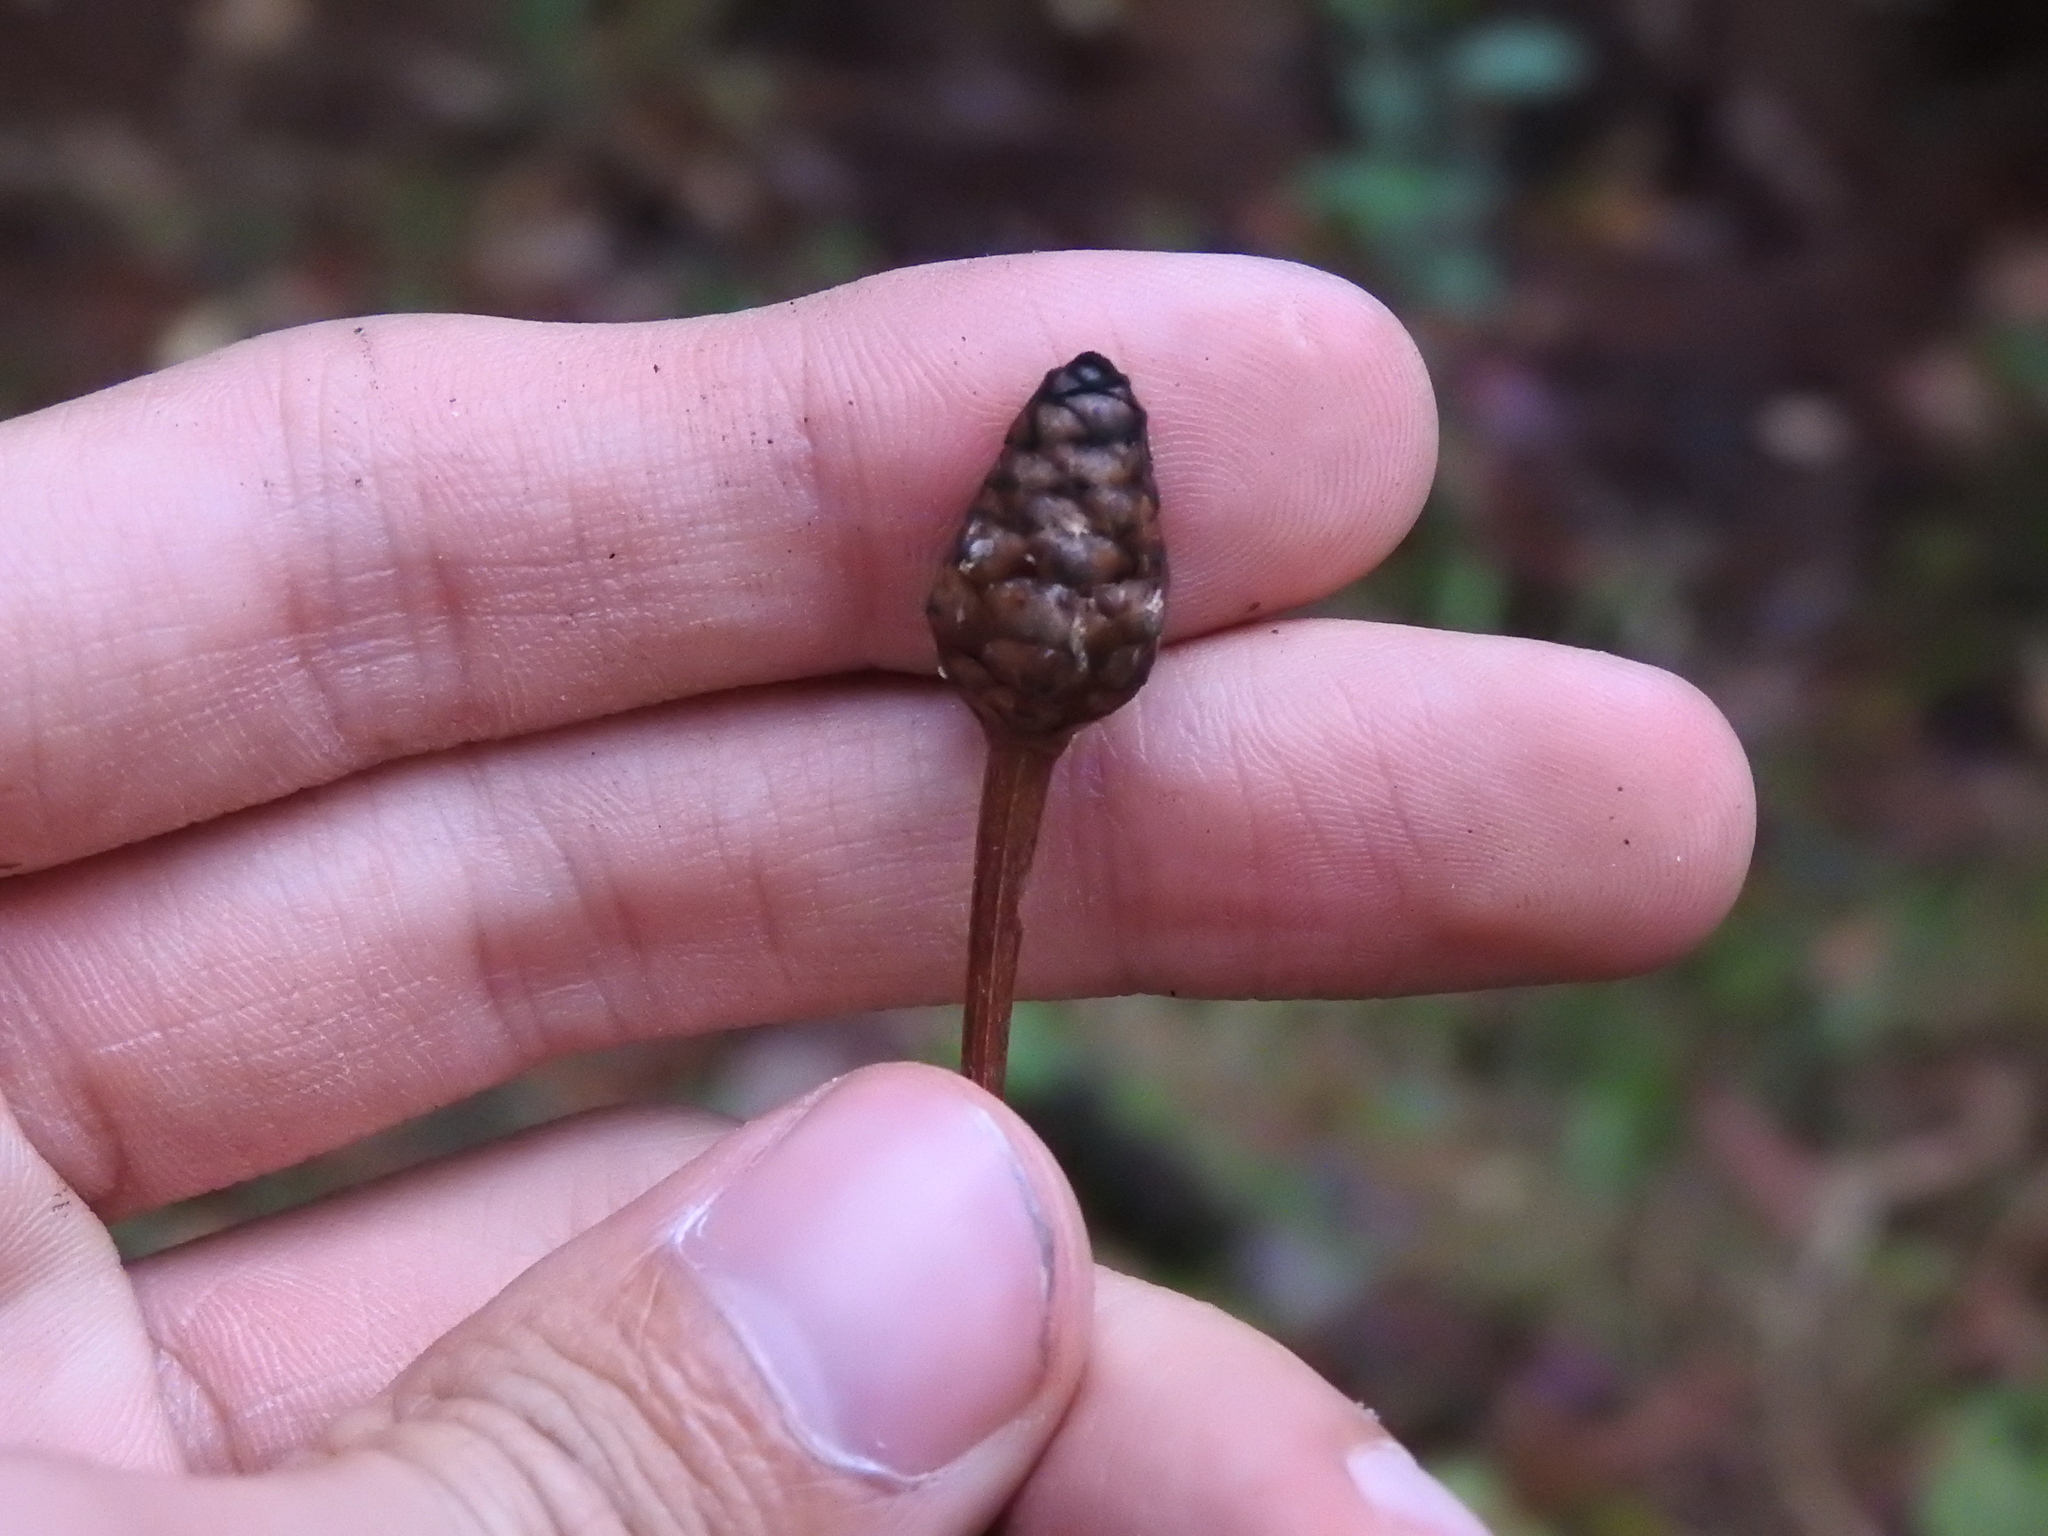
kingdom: Plantae
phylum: Tracheophyta
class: Liliopsida
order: Poales
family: Xyridaceae
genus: Xyris
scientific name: Xyris platylepis
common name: Tall yelloweyed grass
